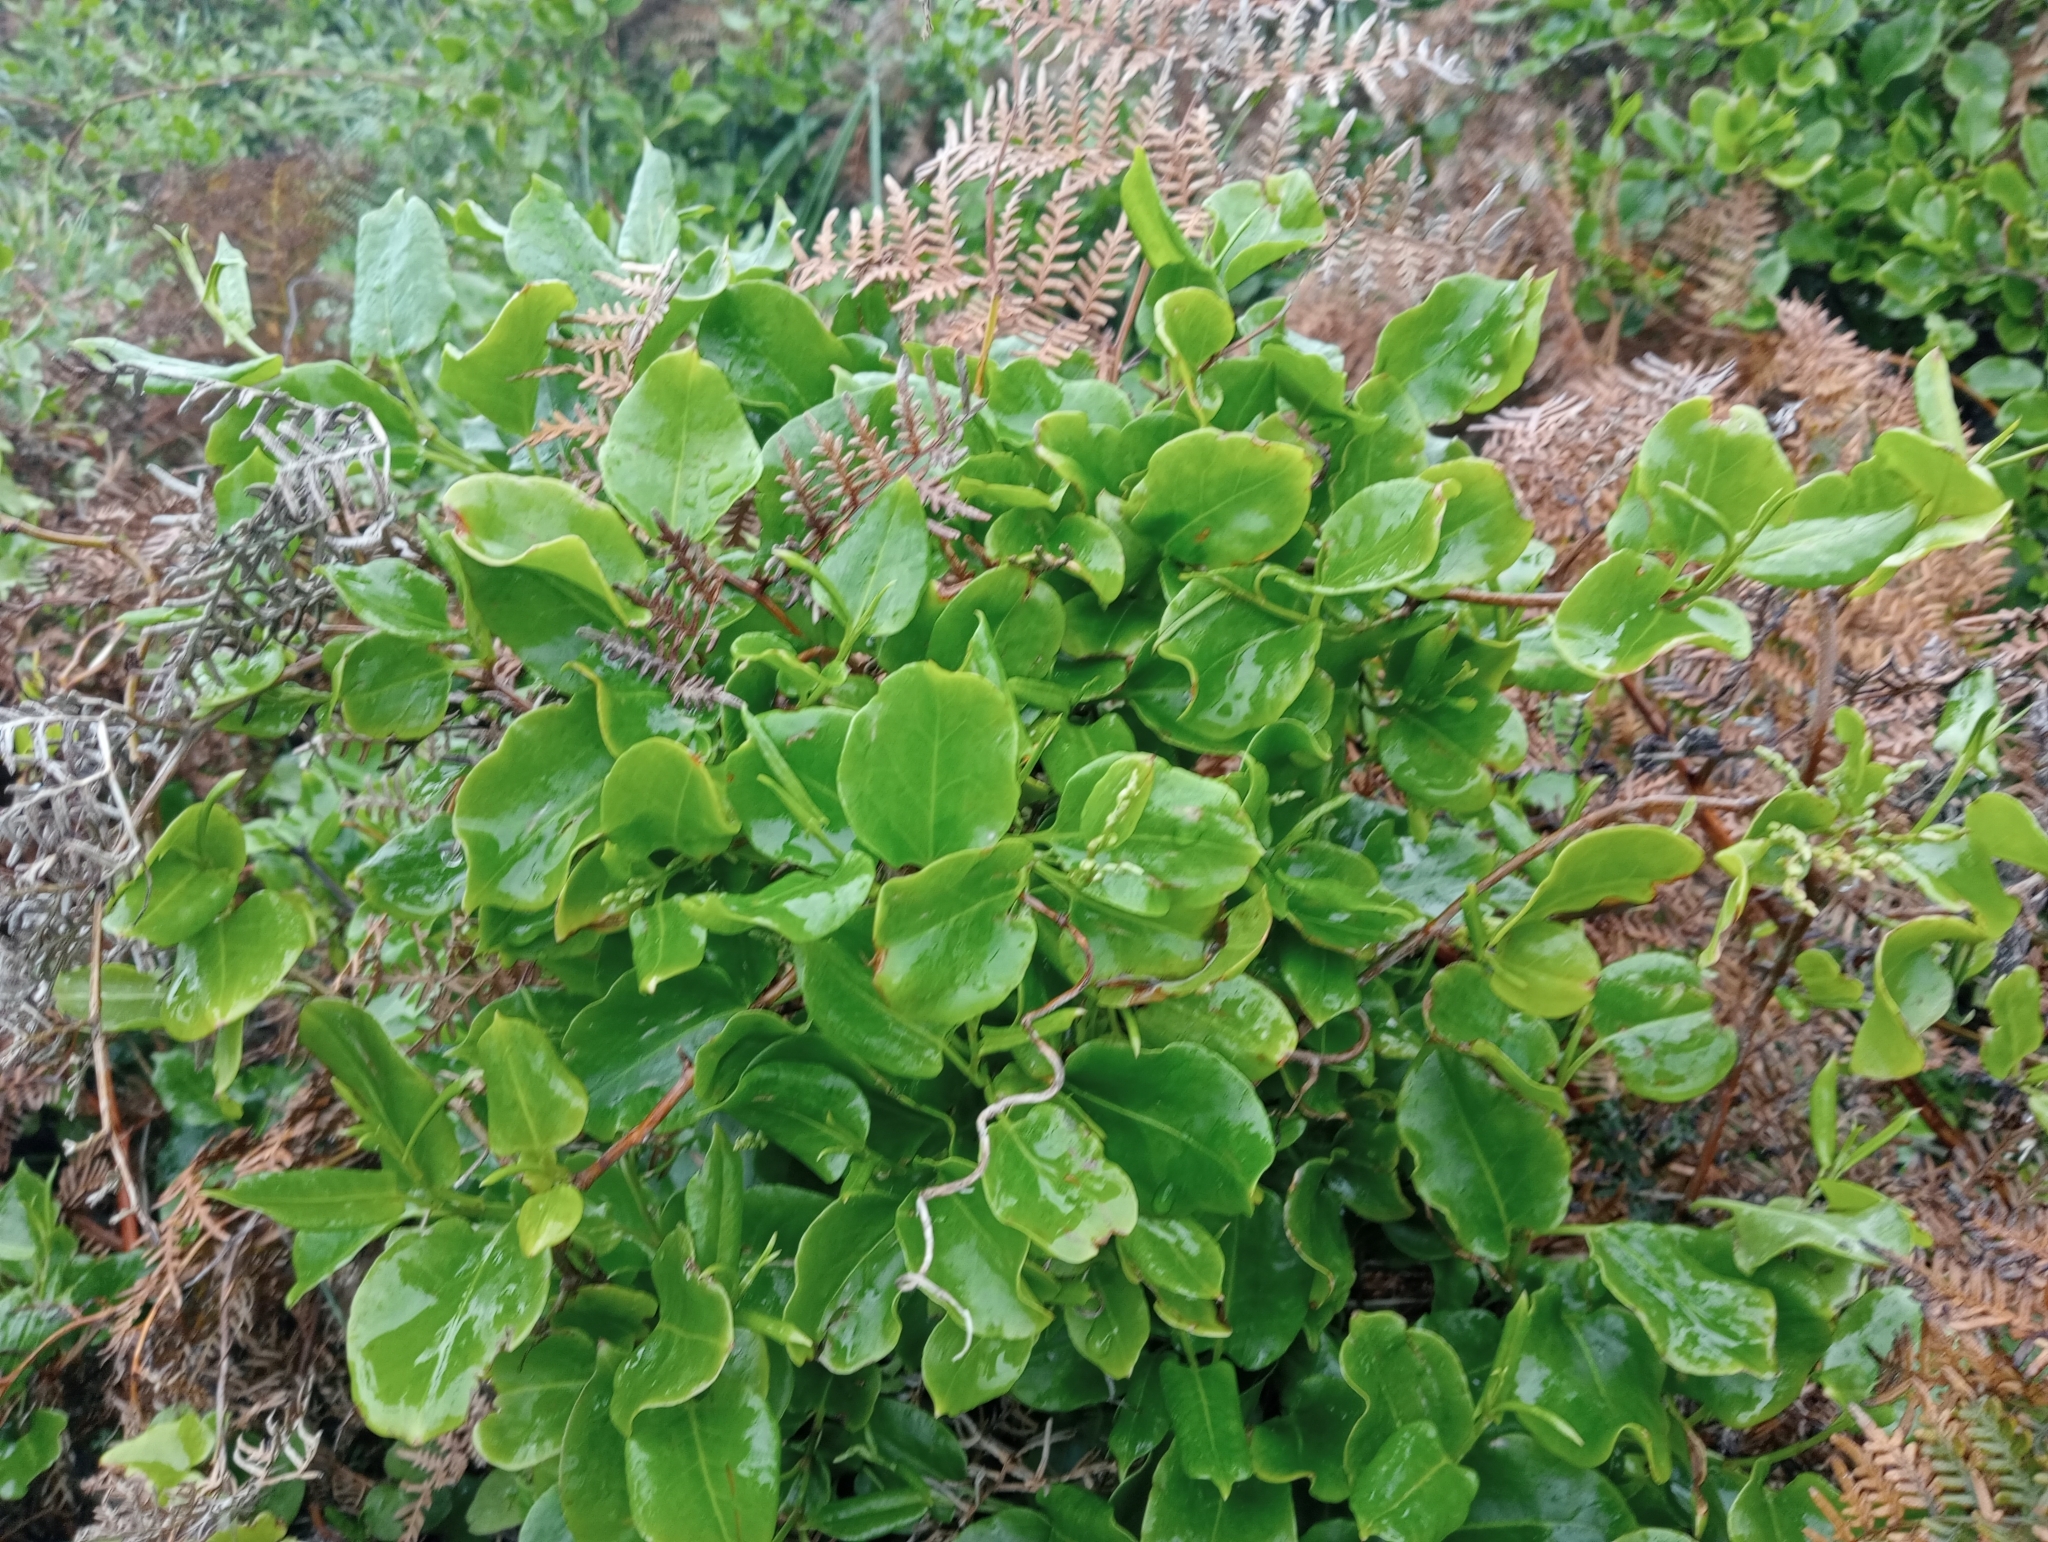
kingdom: Plantae
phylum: Tracheophyta
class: Magnoliopsida
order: Caryophyllales
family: Polygonaceae
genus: Muehlenbeckia
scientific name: Muehlenbeckia australis
